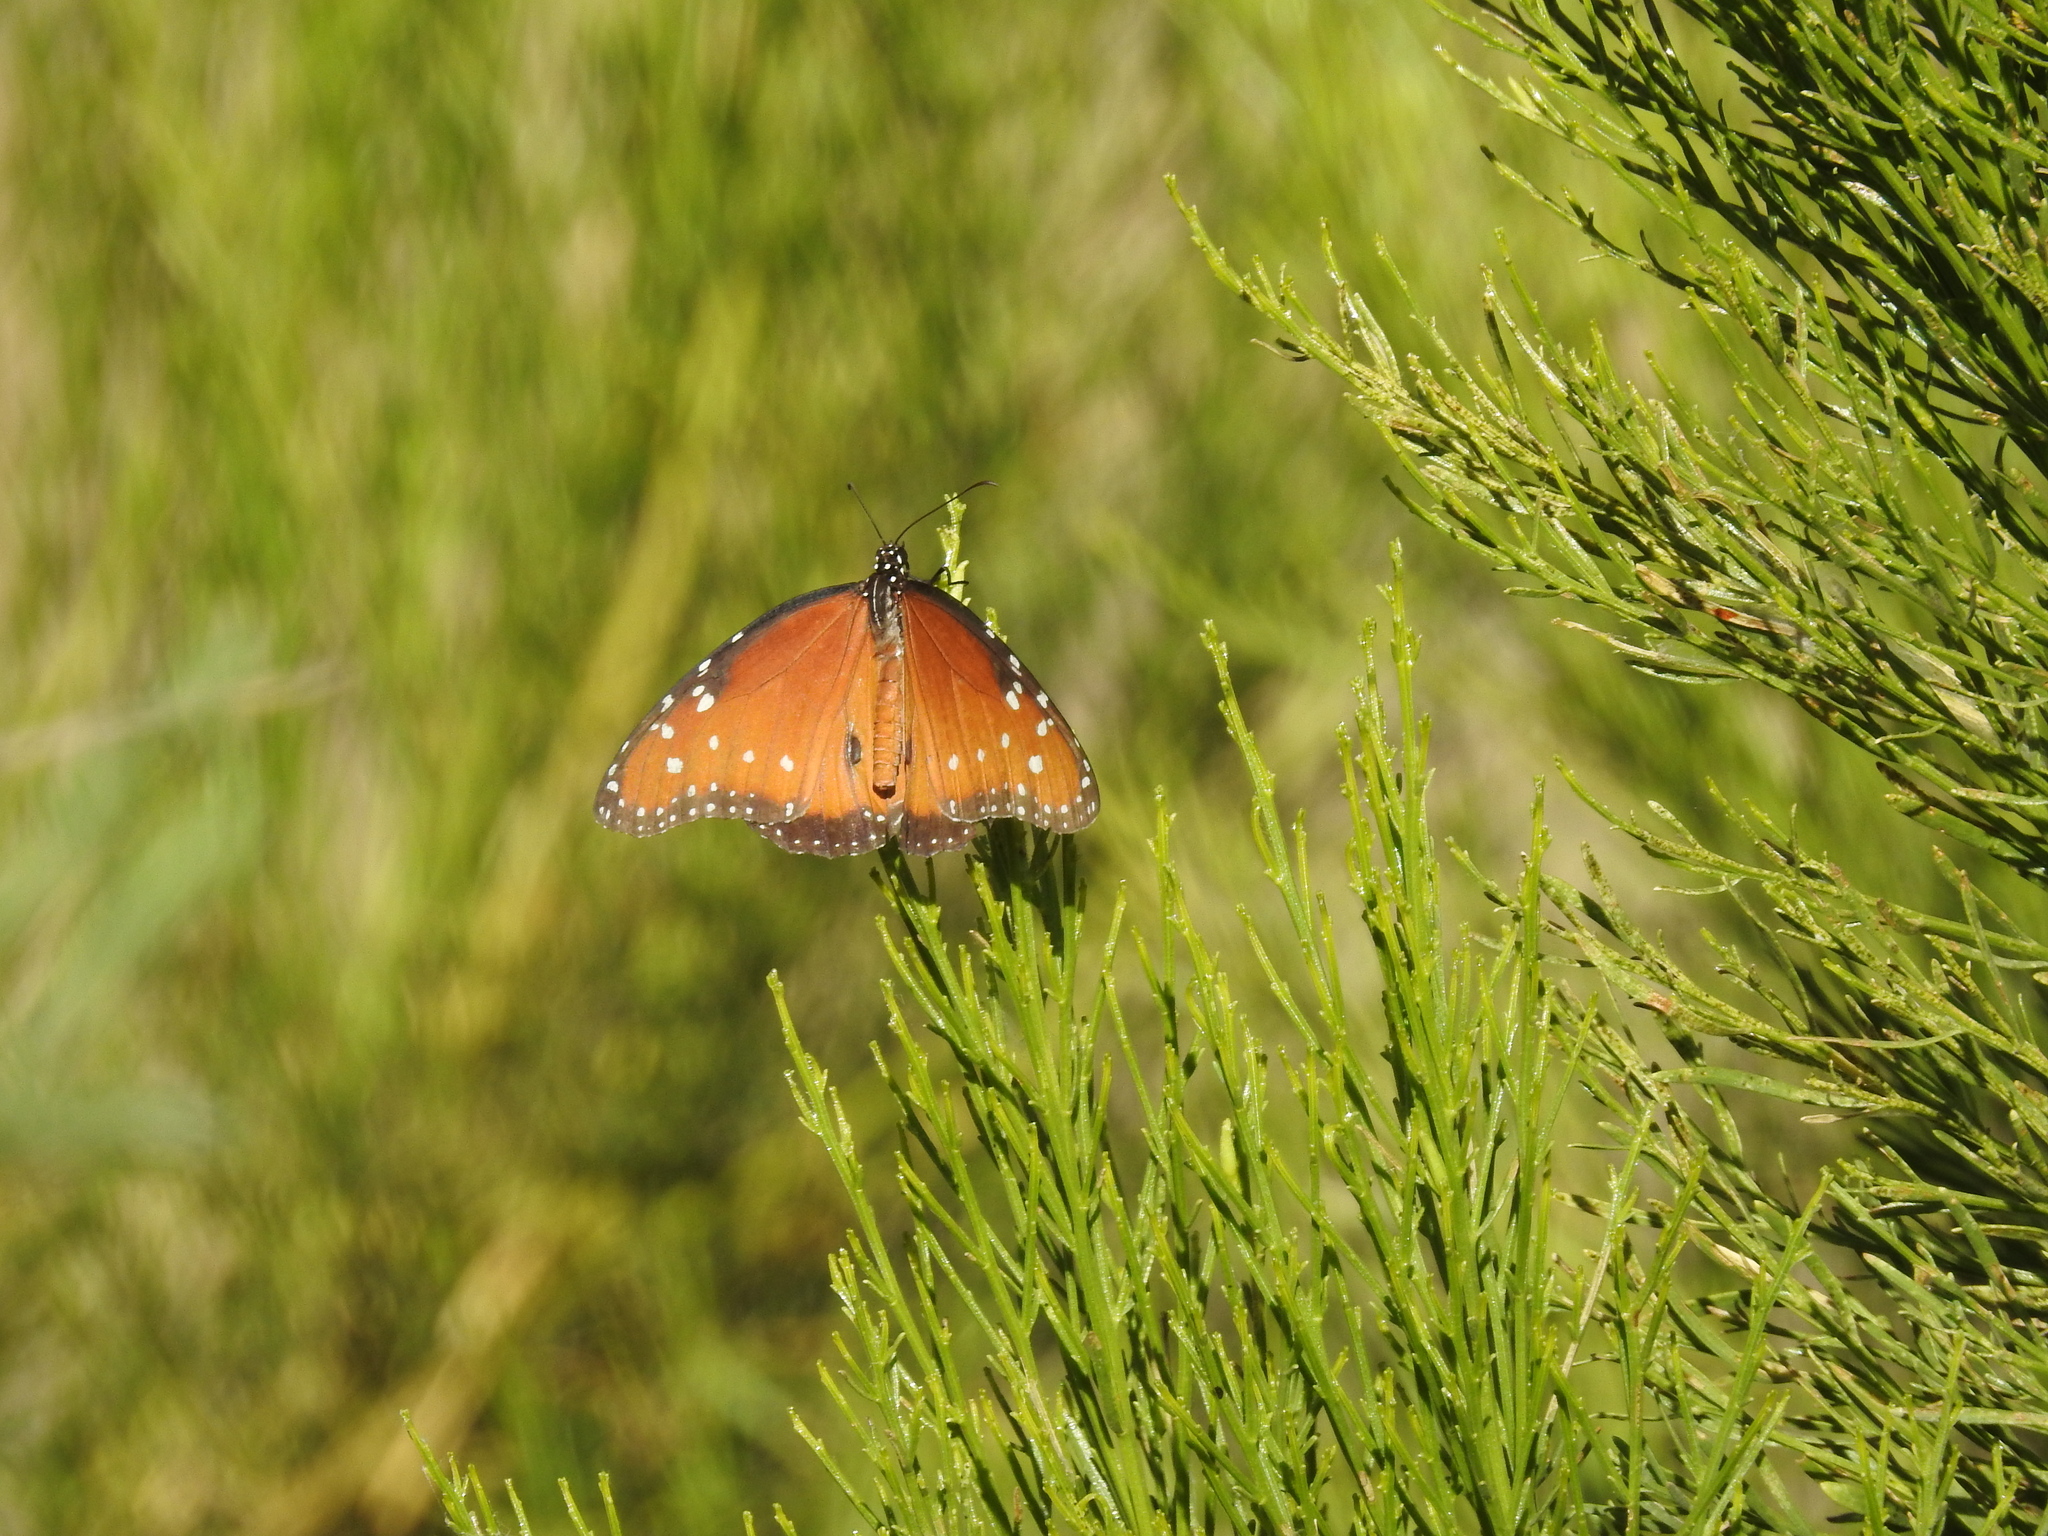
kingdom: Animalia
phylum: Arthropoda
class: Insecta
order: Lepidoptera
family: Nymphalidae
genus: Danaus
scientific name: Danaus gilippus
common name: Queen
